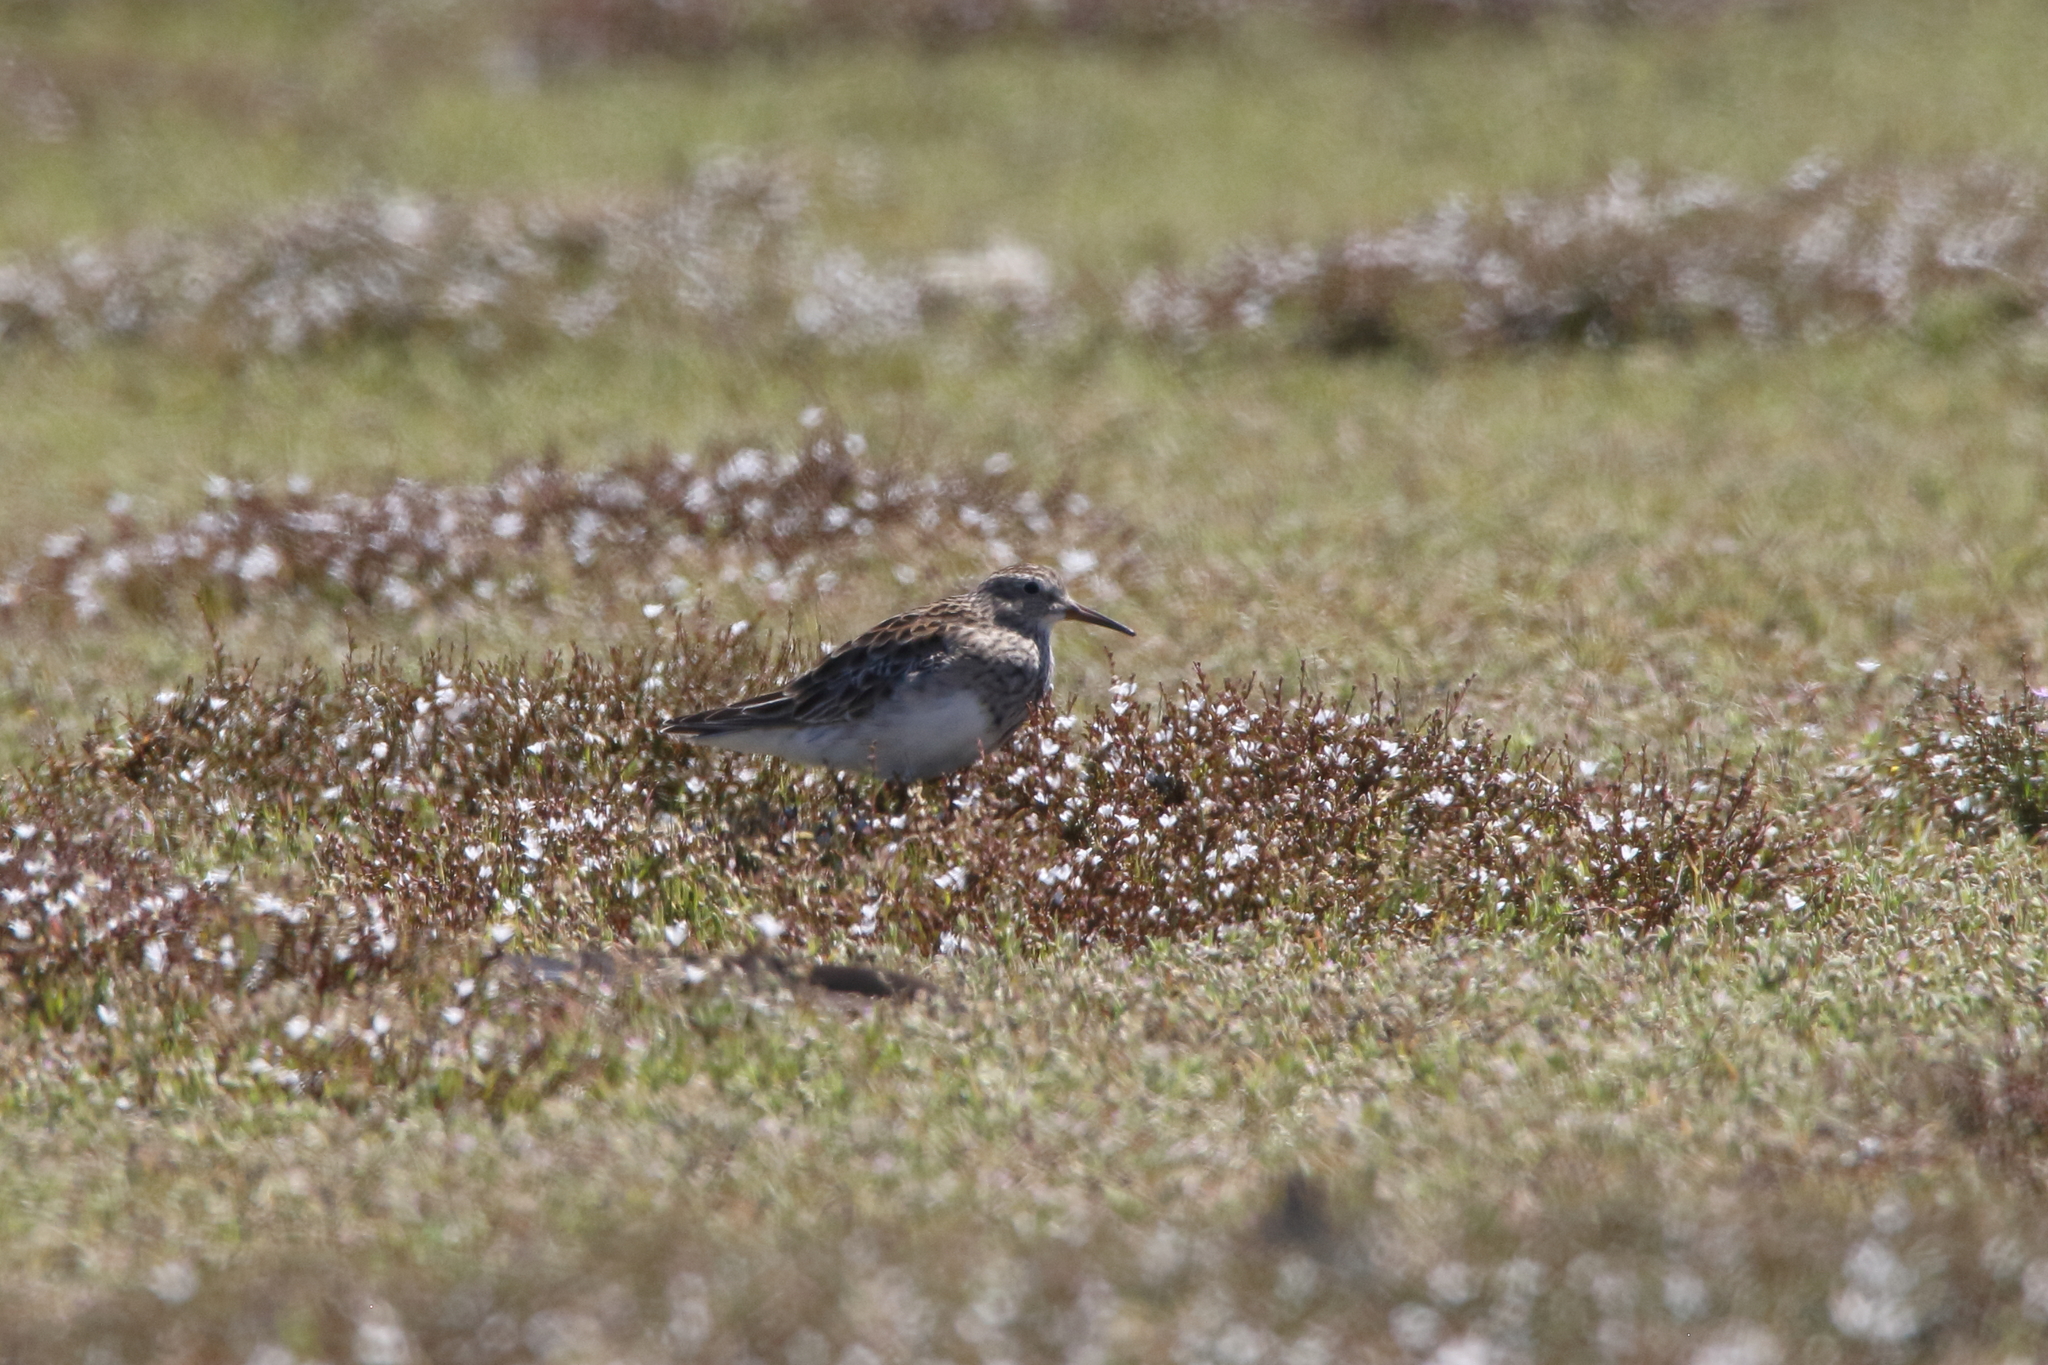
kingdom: Animalia
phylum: Chordata
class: Aves
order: Charadriiformes
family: Scolopacidae
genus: Calidris
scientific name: Calidris melanotos
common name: Pectoral sandpiper
